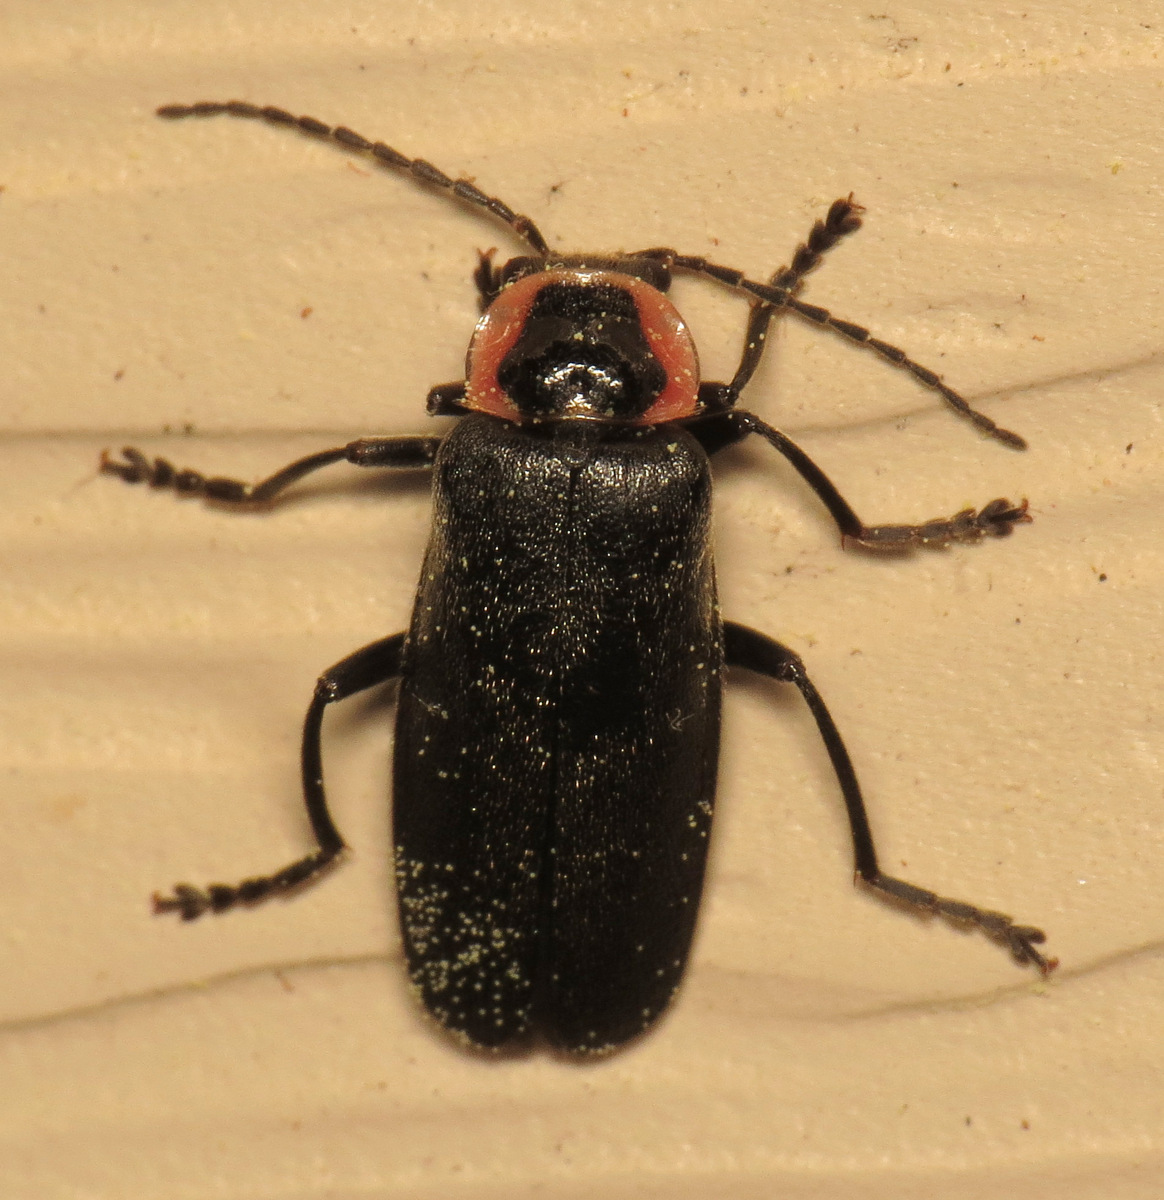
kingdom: Animalia
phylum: Arthropoda
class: Insecta
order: Coleoptera
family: Cantharidae
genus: Rhaxonycha
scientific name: Rhaxonycha carolina
